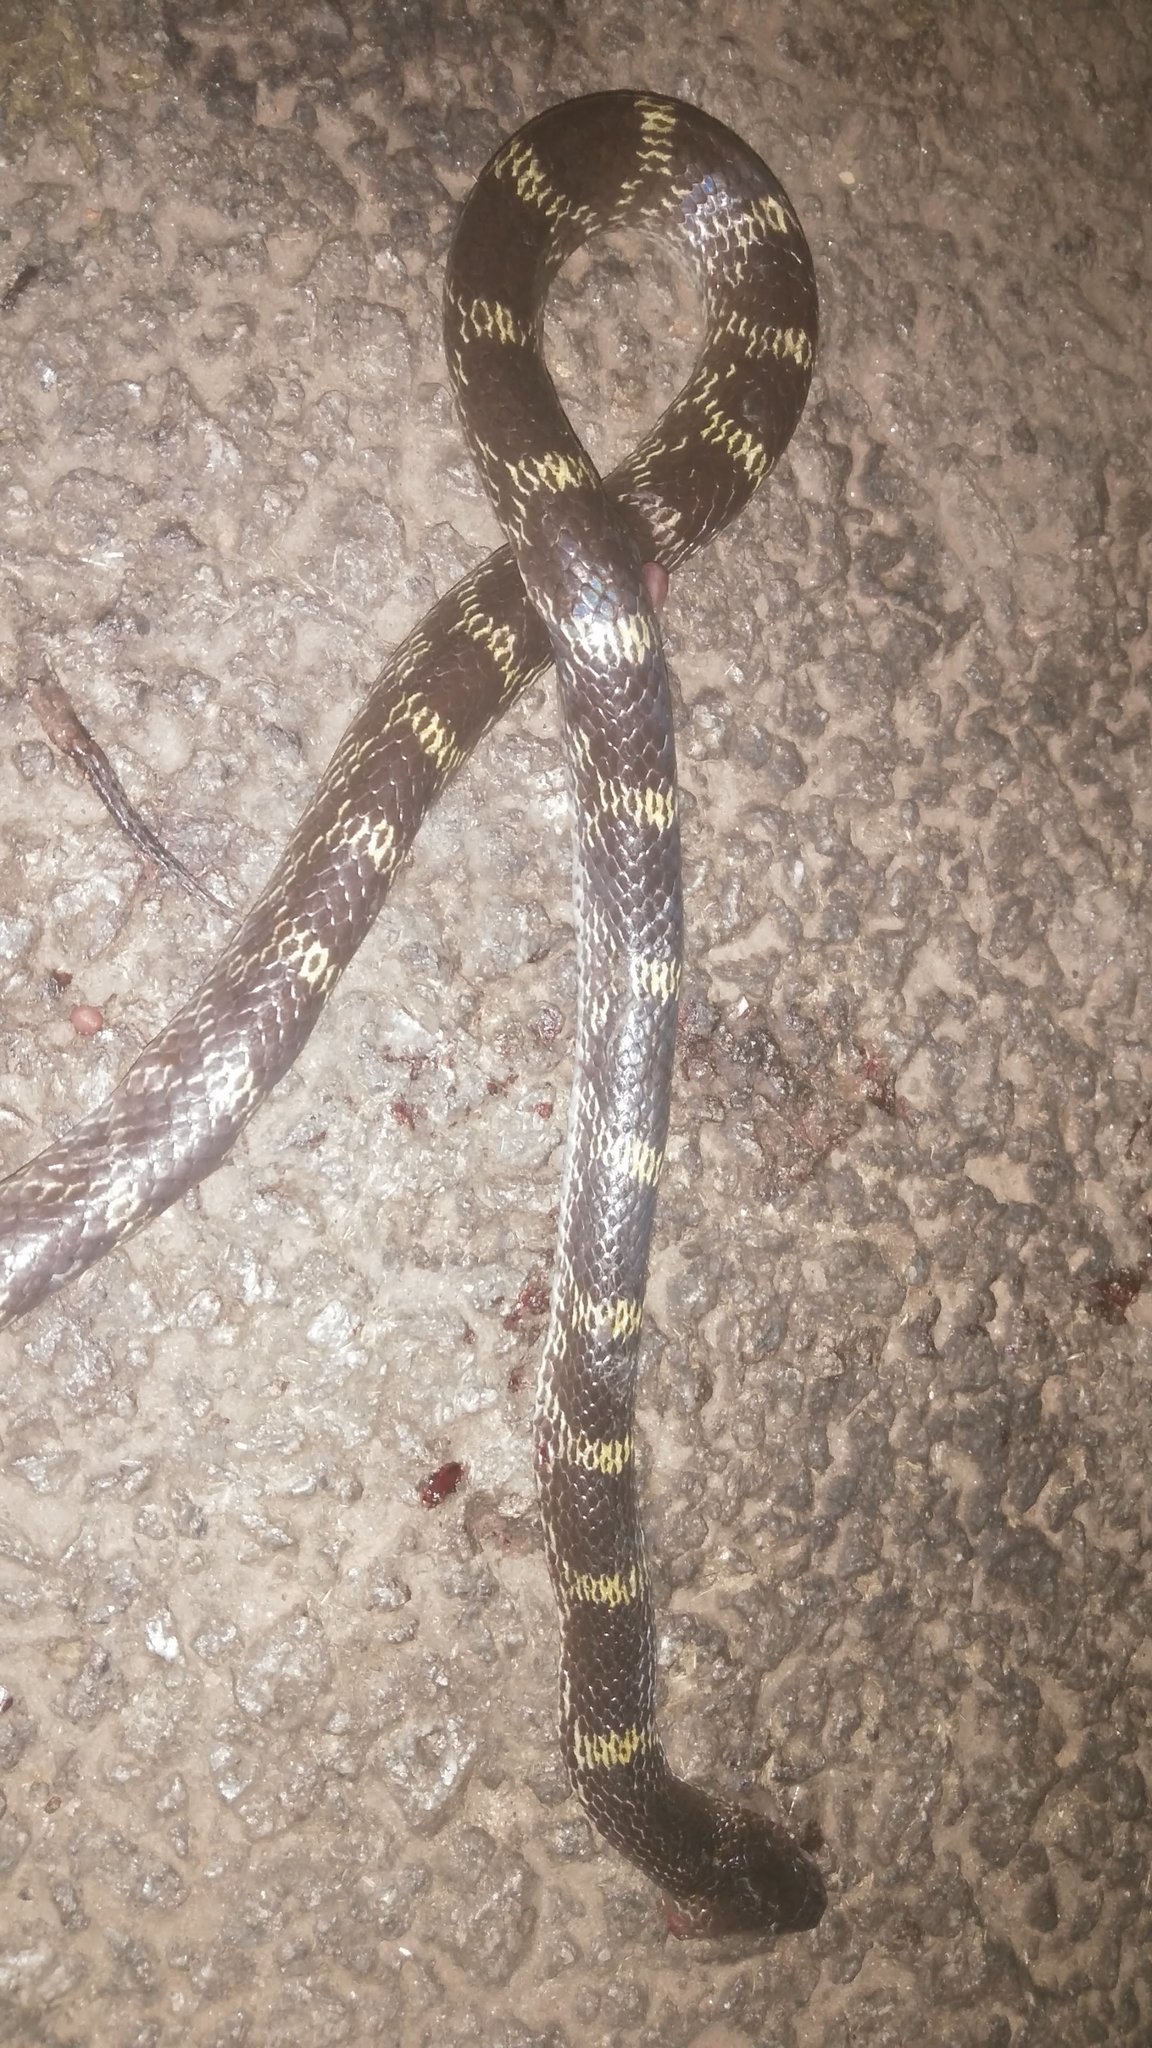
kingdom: Animalia
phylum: Chordata
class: Squamata
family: Colubridae
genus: Lycodon
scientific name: Lycodon travancoricus
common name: Travancore wolf snake
